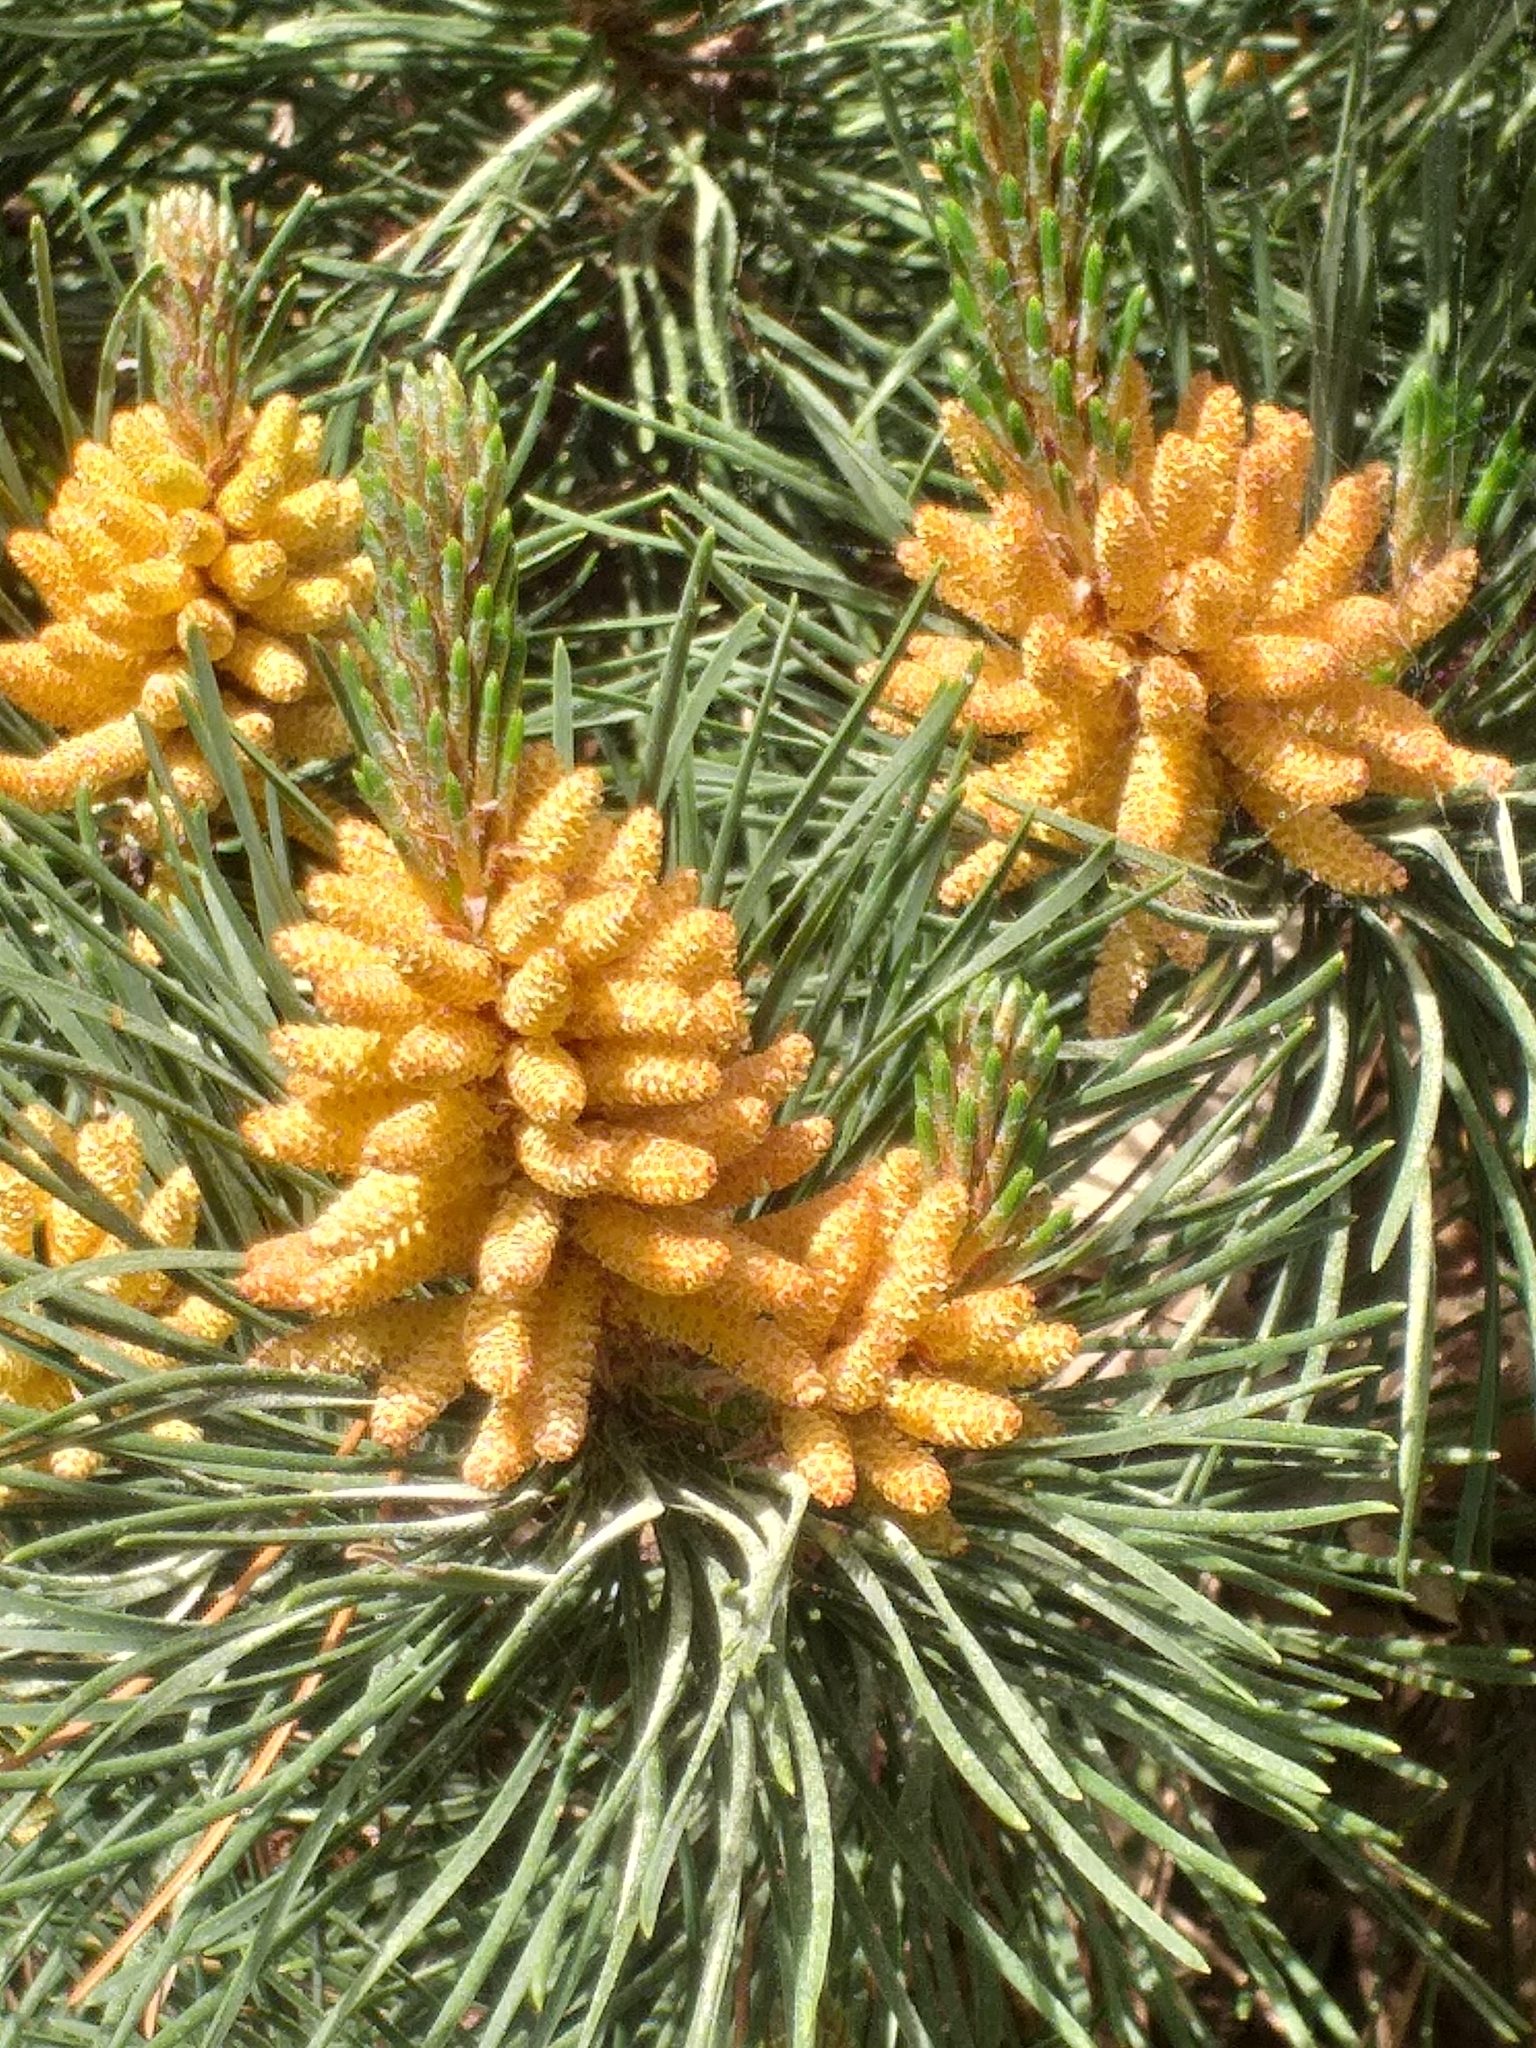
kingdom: Plantae
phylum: Tracheophyta
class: Pinopsida
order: Pinales
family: Pinaceae
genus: Pinus
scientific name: Pinus sylvestris
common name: Scots pine
